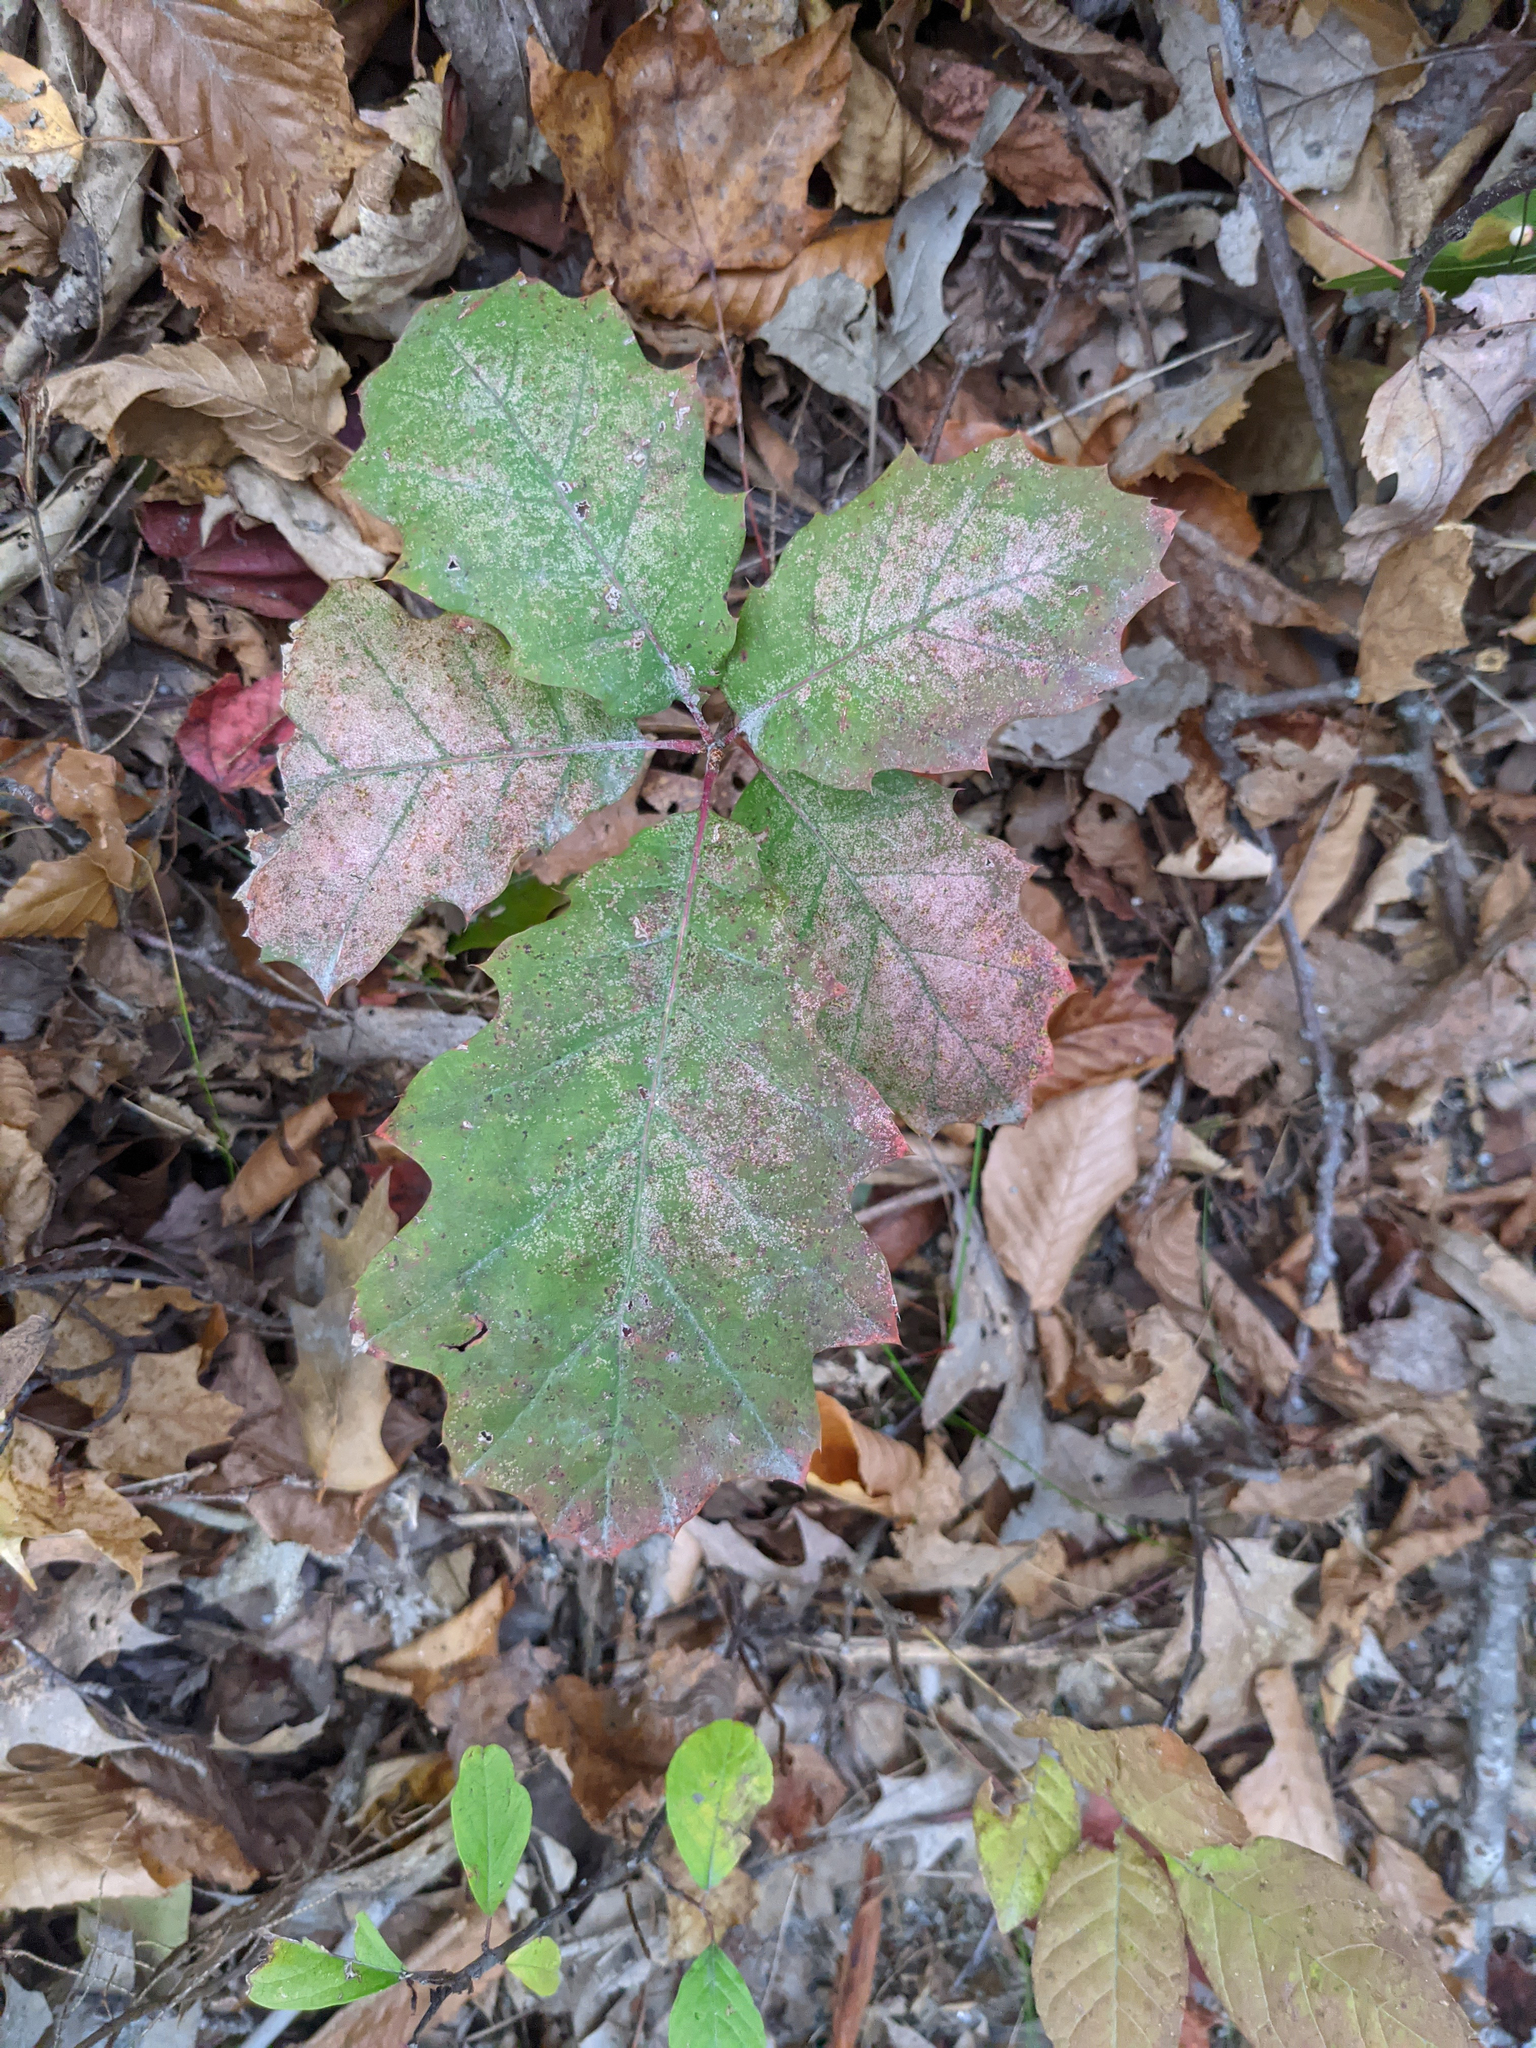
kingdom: Plantae
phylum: Tracheophyta
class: Magnoliopsida
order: Fagales
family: Fagaceae
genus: Quercus
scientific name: Quercus rubra
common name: Red oak
